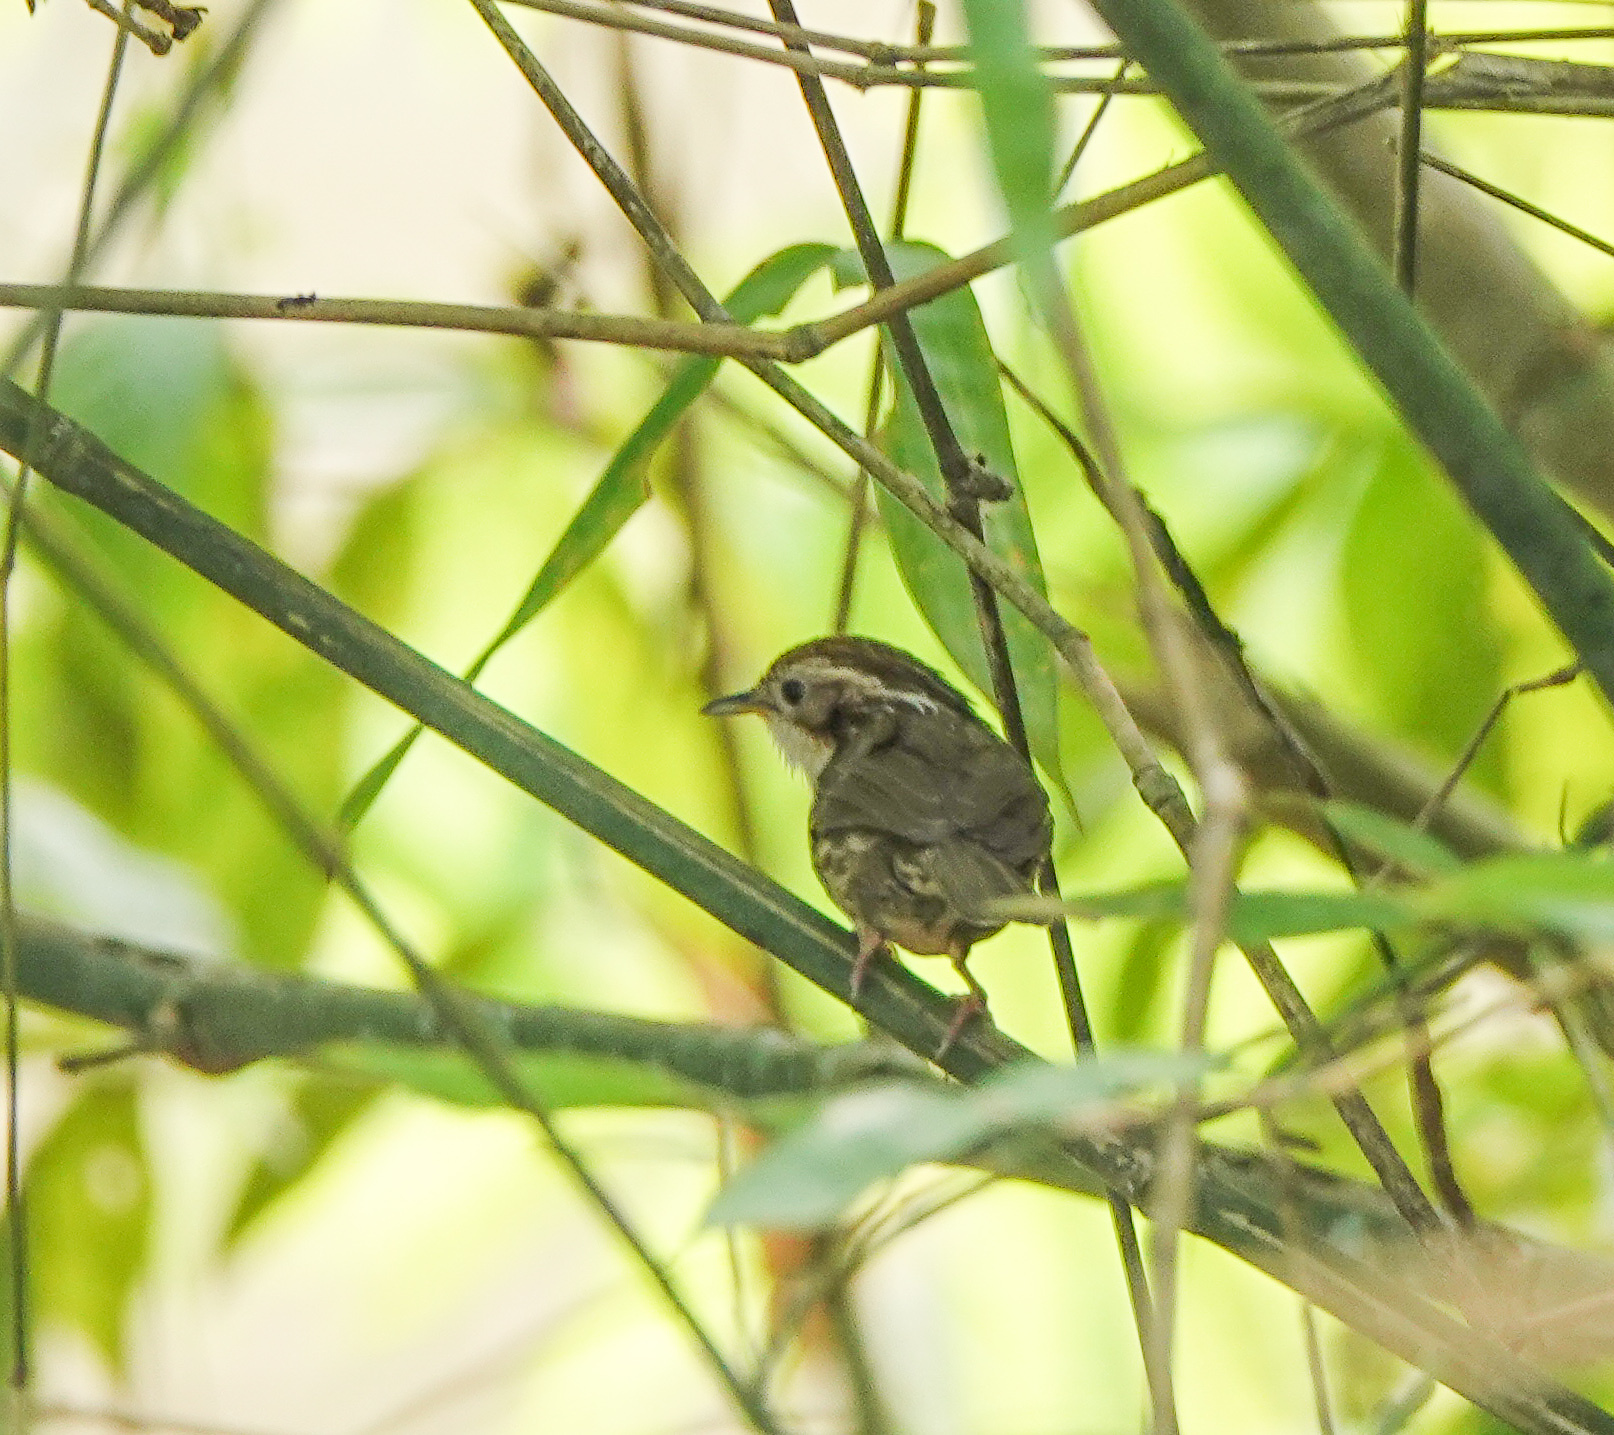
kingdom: Animalia
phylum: Chordata
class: Aves
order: Passeriformes
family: Pellorneidae
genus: Pellorneum
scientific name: Pellorneum ruficeps
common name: Puff-throated babbler
